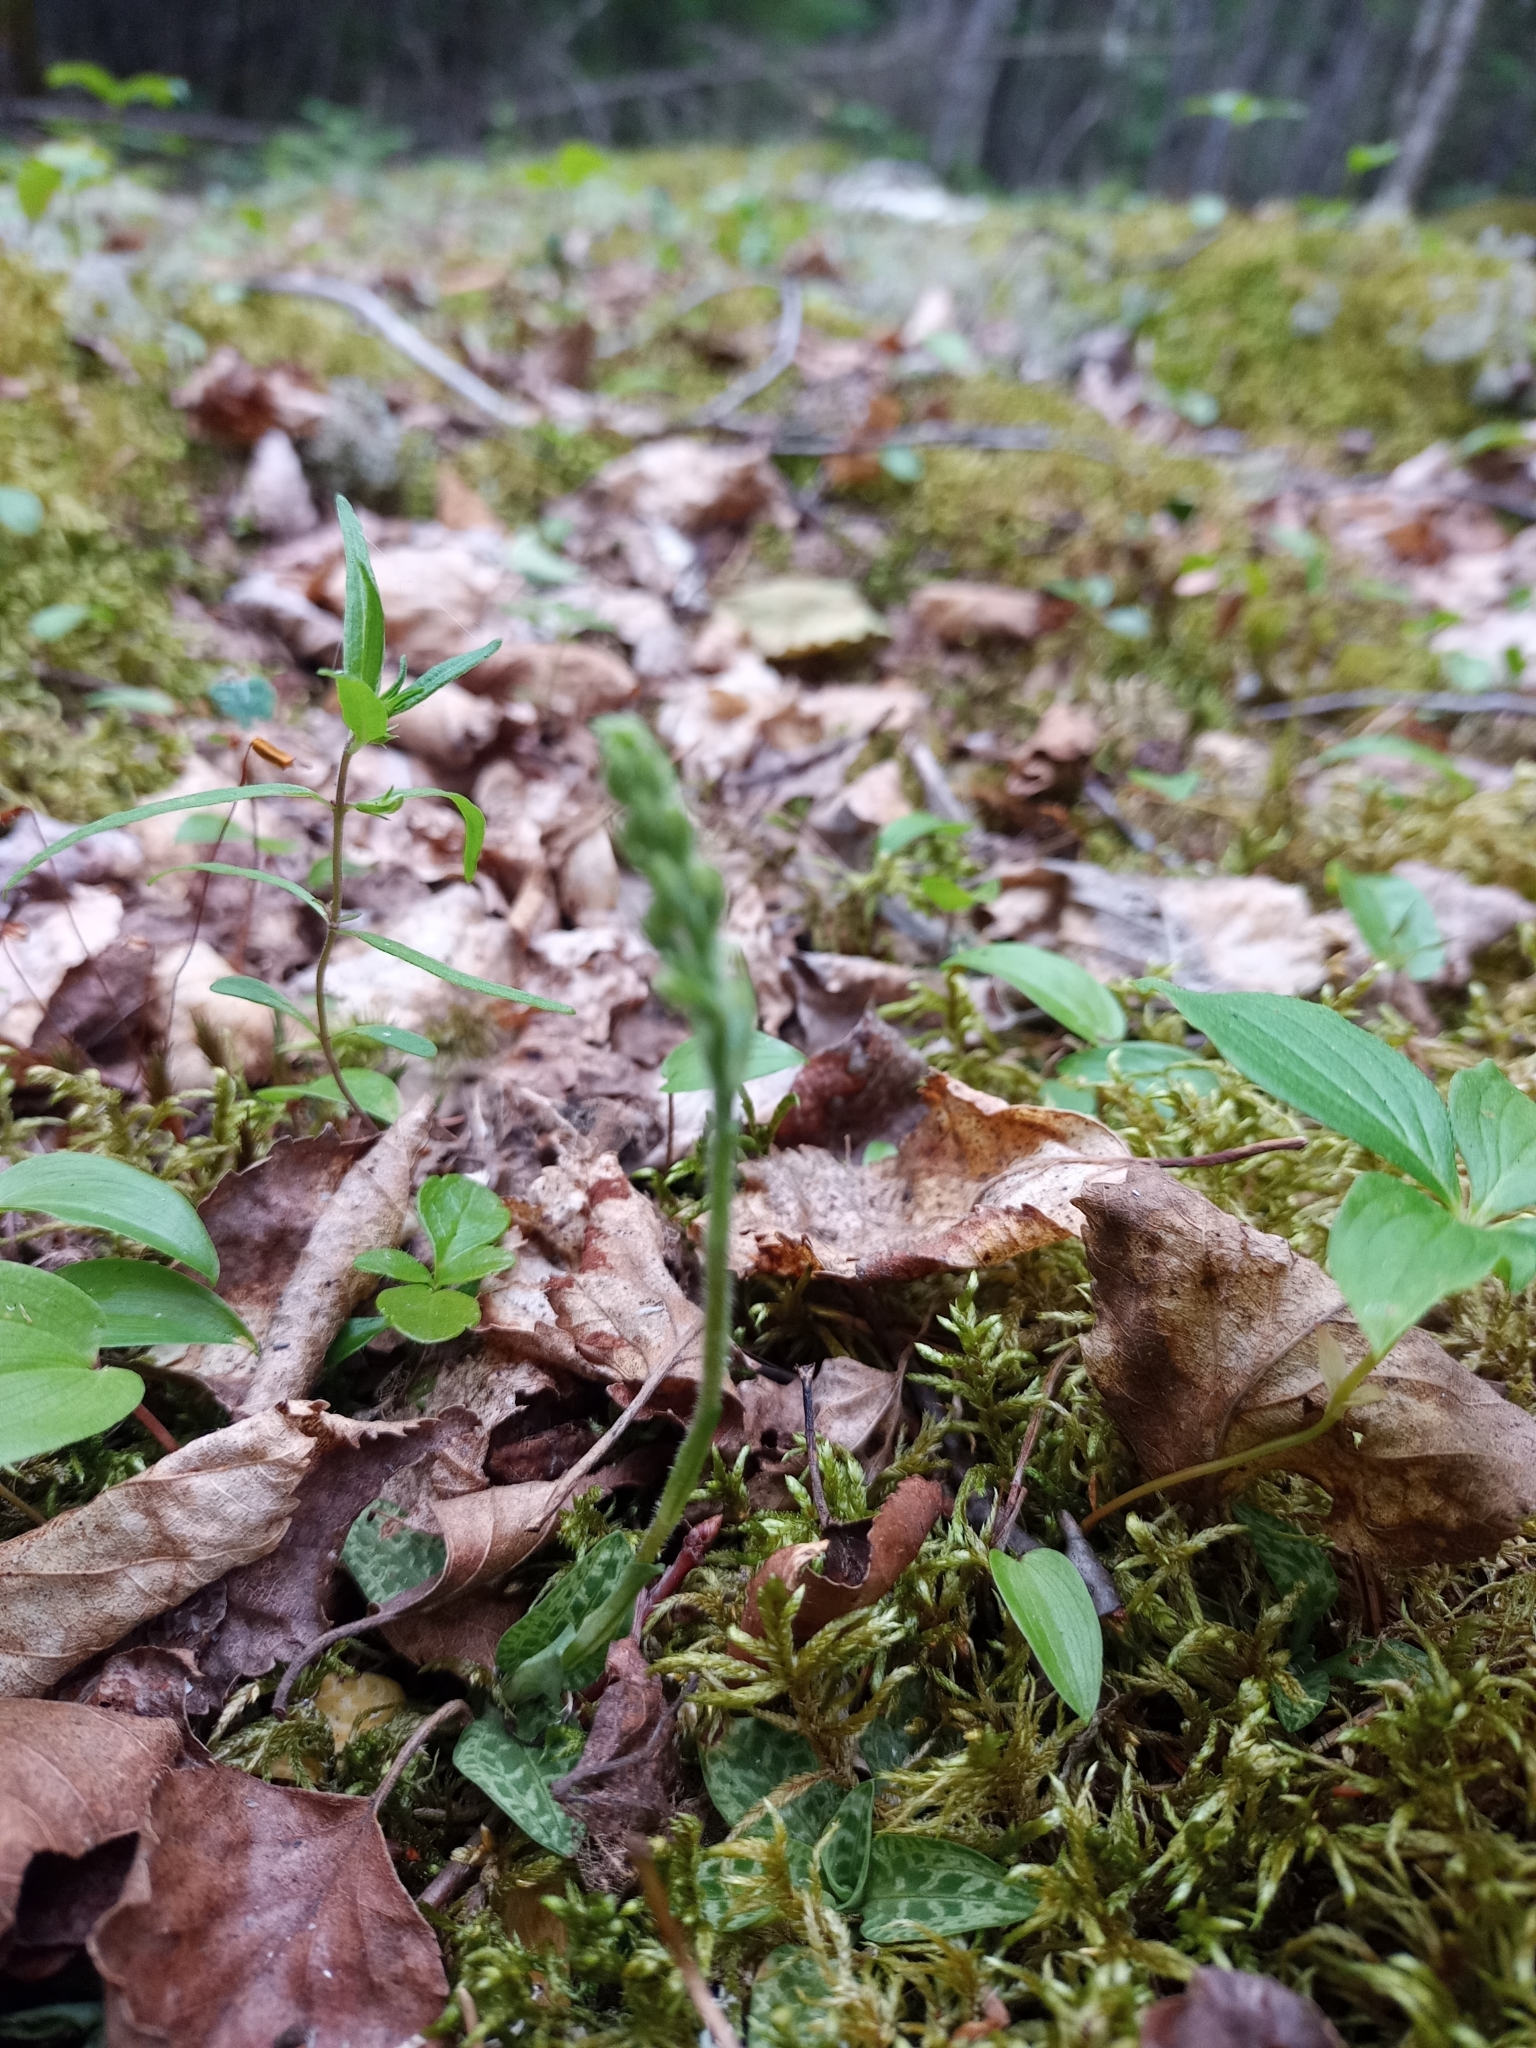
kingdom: Plantae
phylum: Tracheophyta
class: Liliopsida
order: Asparagales
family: Orchidaceae
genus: Goodyera
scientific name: Goodyera repens
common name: Creeping lady's-tresses
